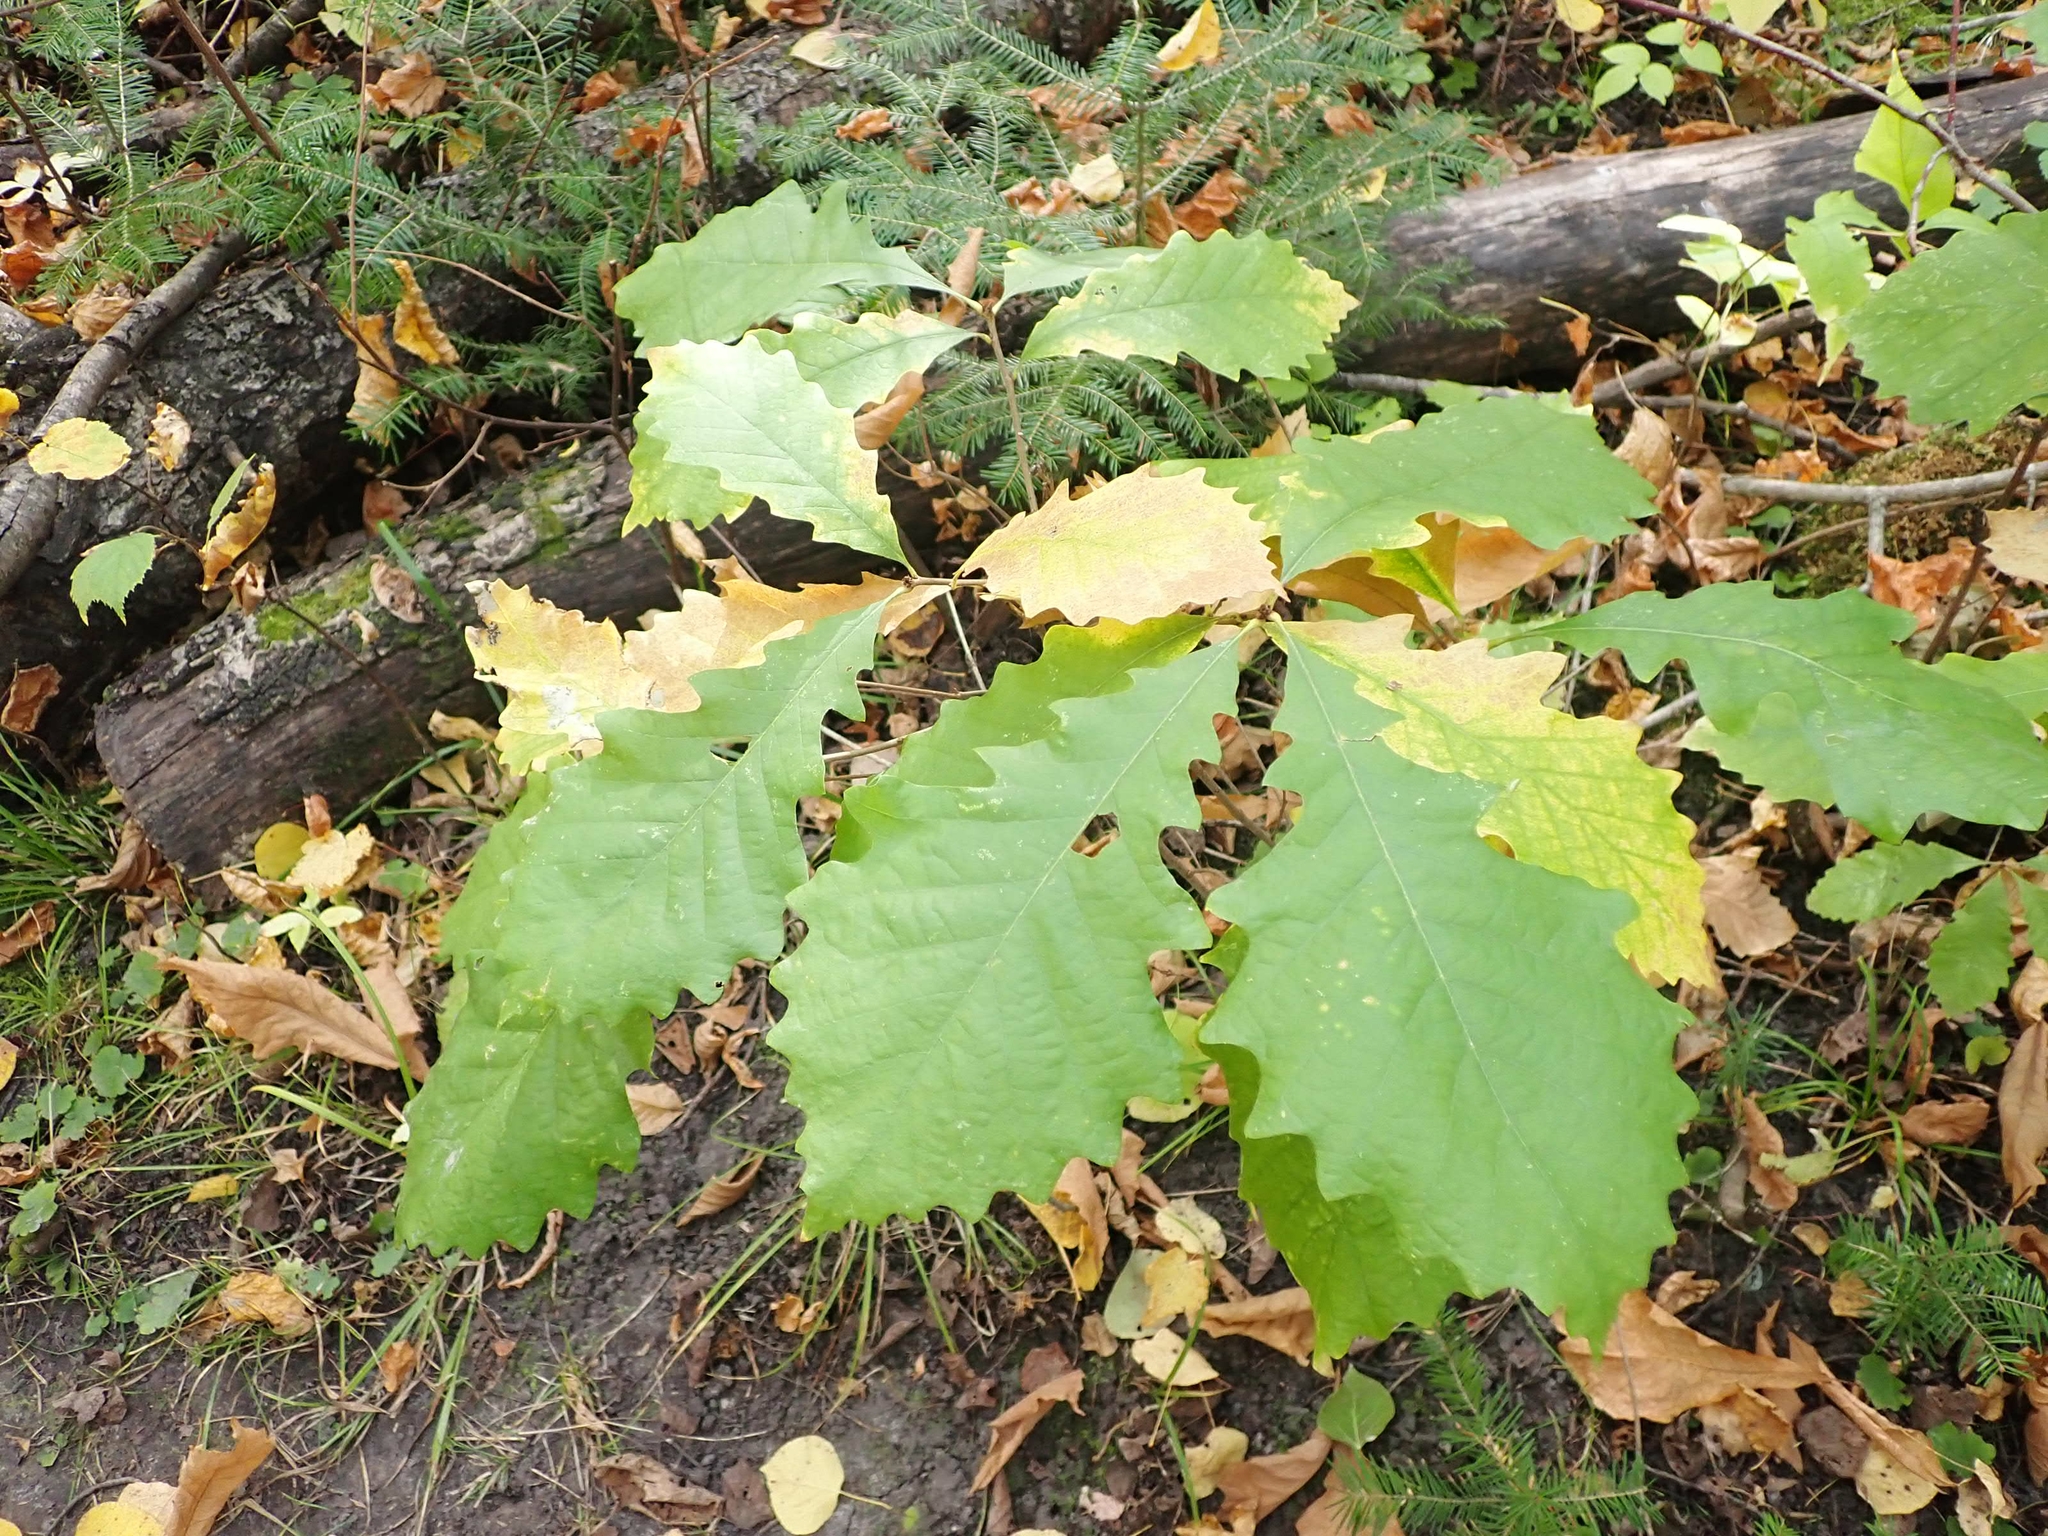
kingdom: Plantae
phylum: Tracheophyta
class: Magnoliopsida
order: Fagales
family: Fagaceae
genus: Quercus
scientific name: Quercus macrocarpa
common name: Bur oak
